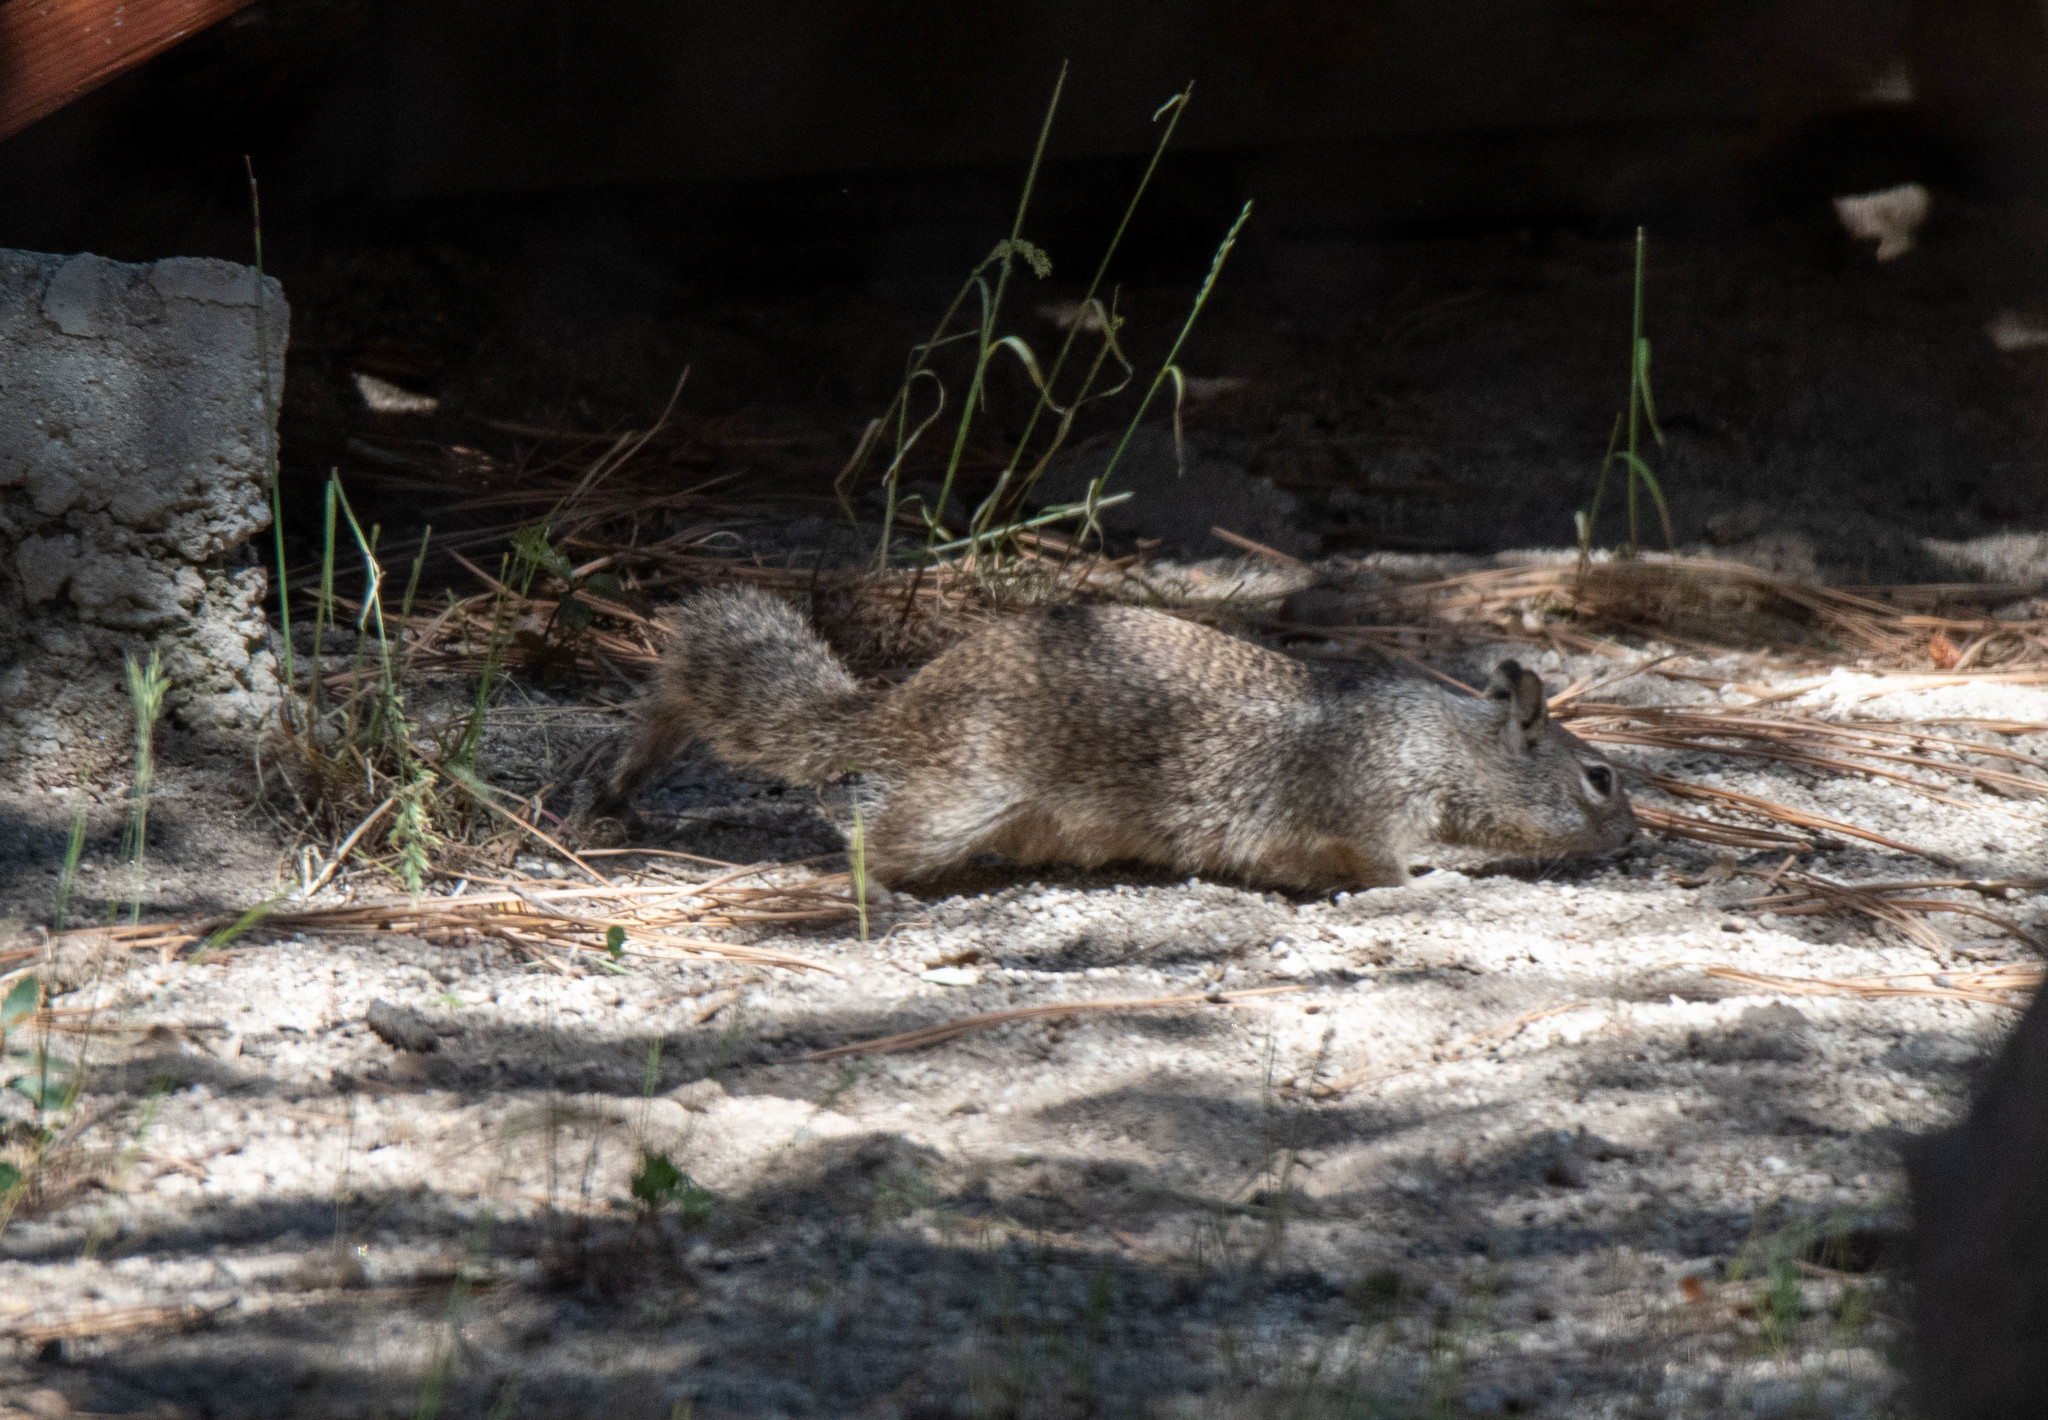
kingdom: Animalia
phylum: Chordata
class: Mammalia
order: Rodentia
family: Sciuridae
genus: Otospermophilus
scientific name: Otospermophilus beecheyi
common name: California ground squirrel
